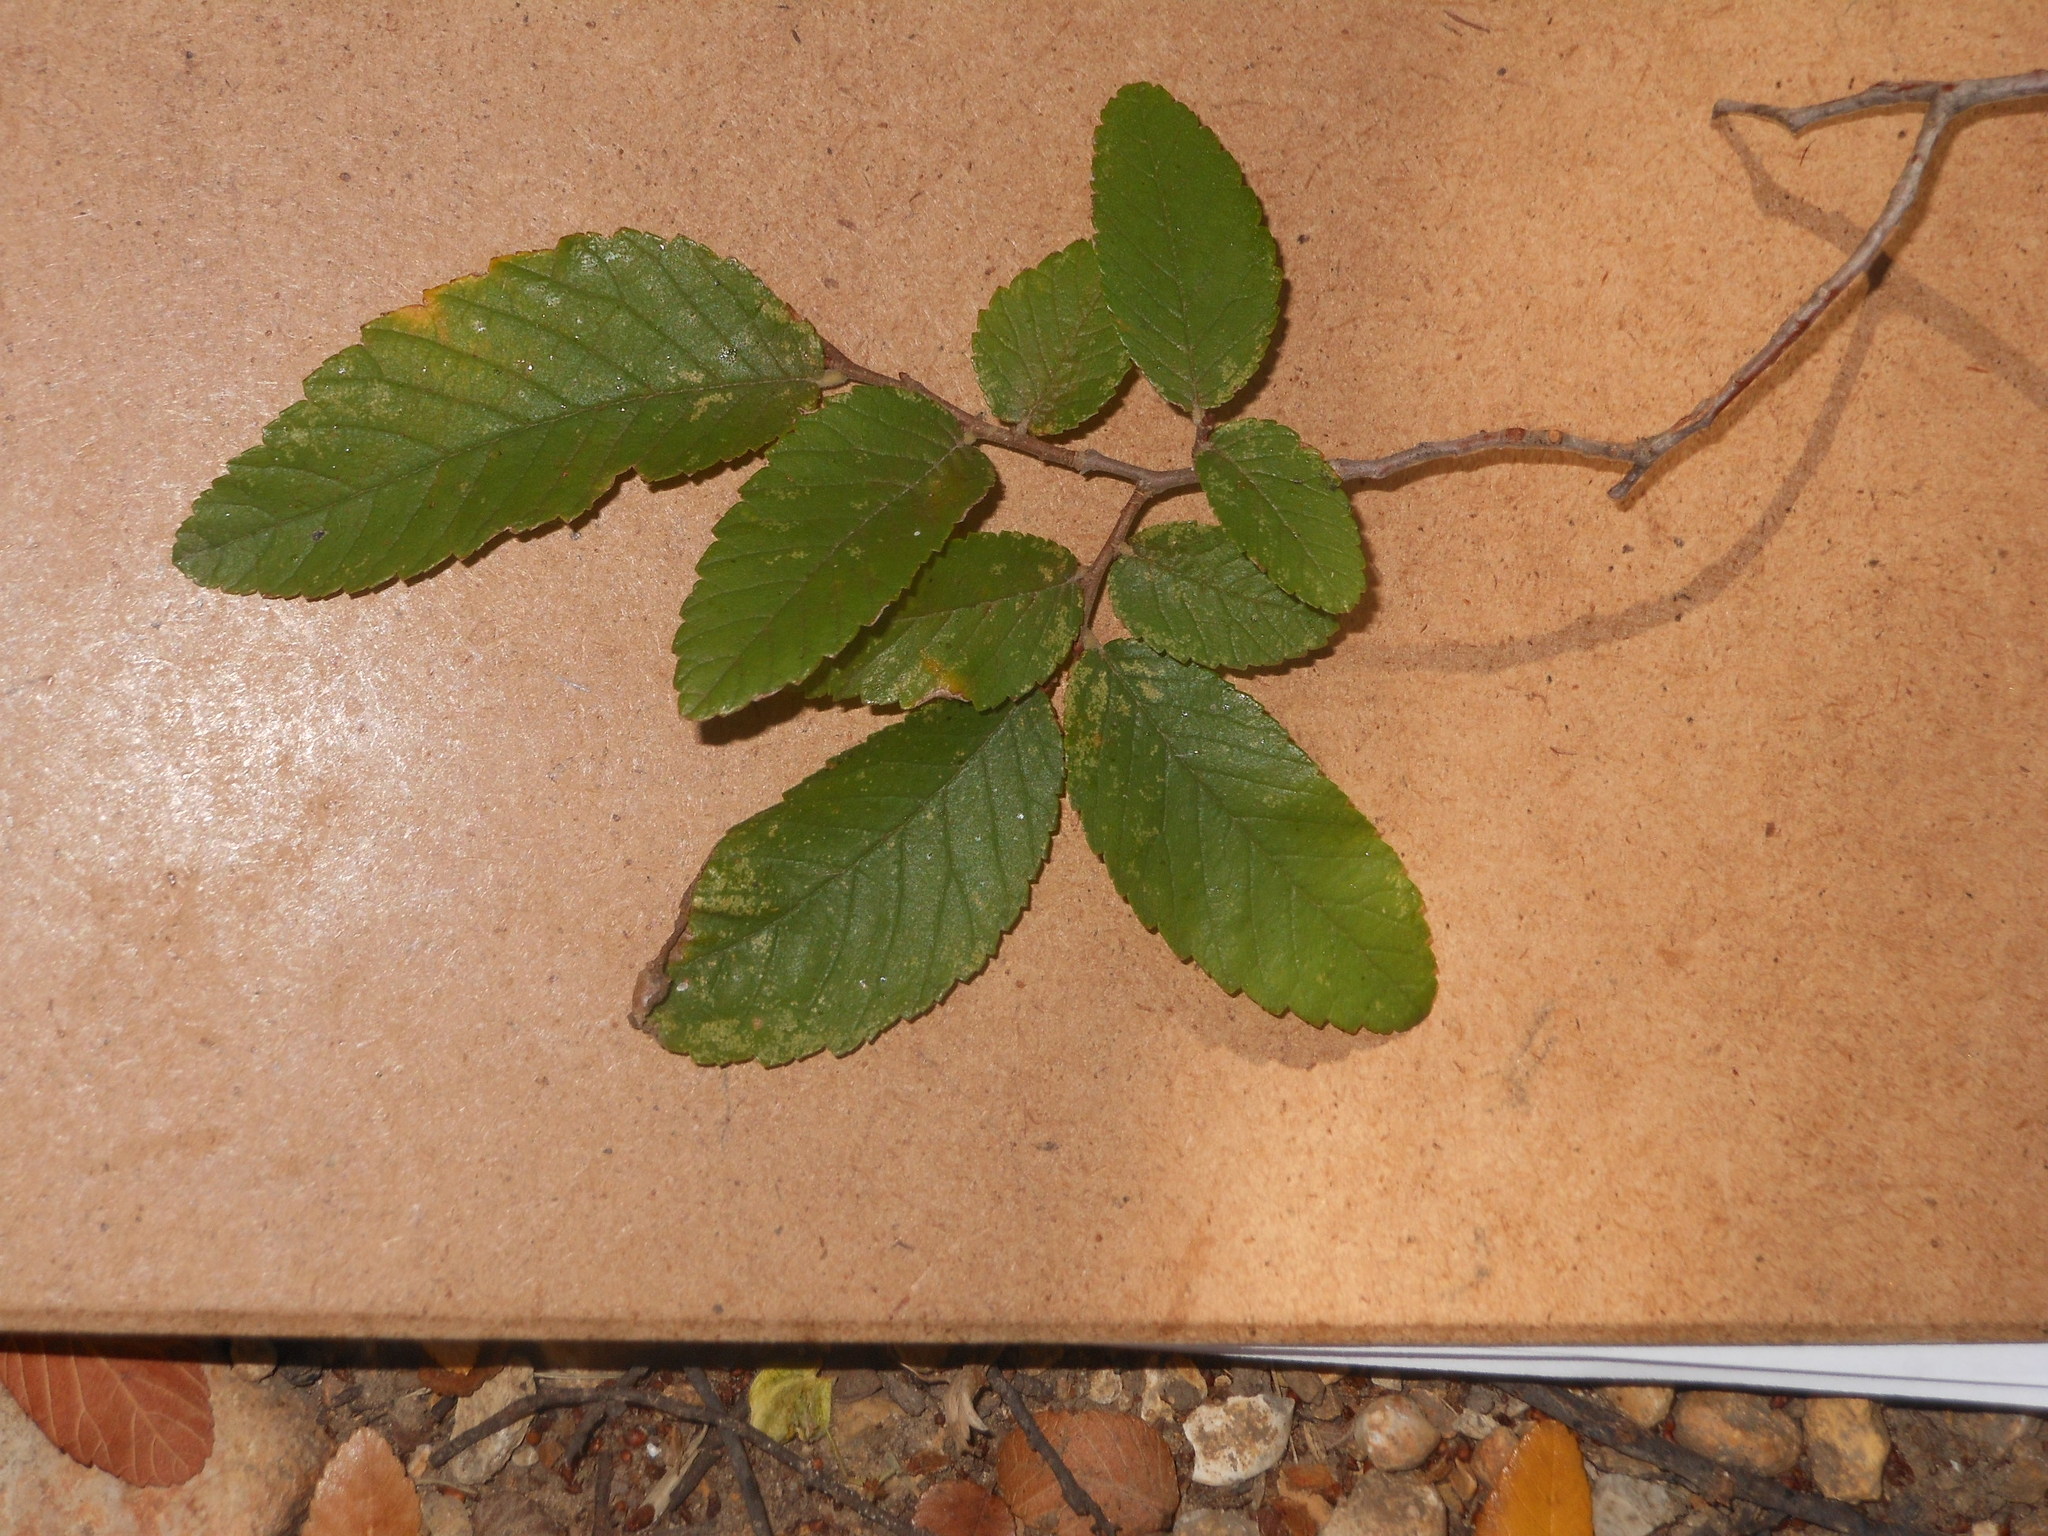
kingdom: Plantae
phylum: Tracheophyta
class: Magnoliopsida
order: Rosales
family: Ulmaceae
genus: Ulmus
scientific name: Ulmus crassifolia
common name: Basket elm
